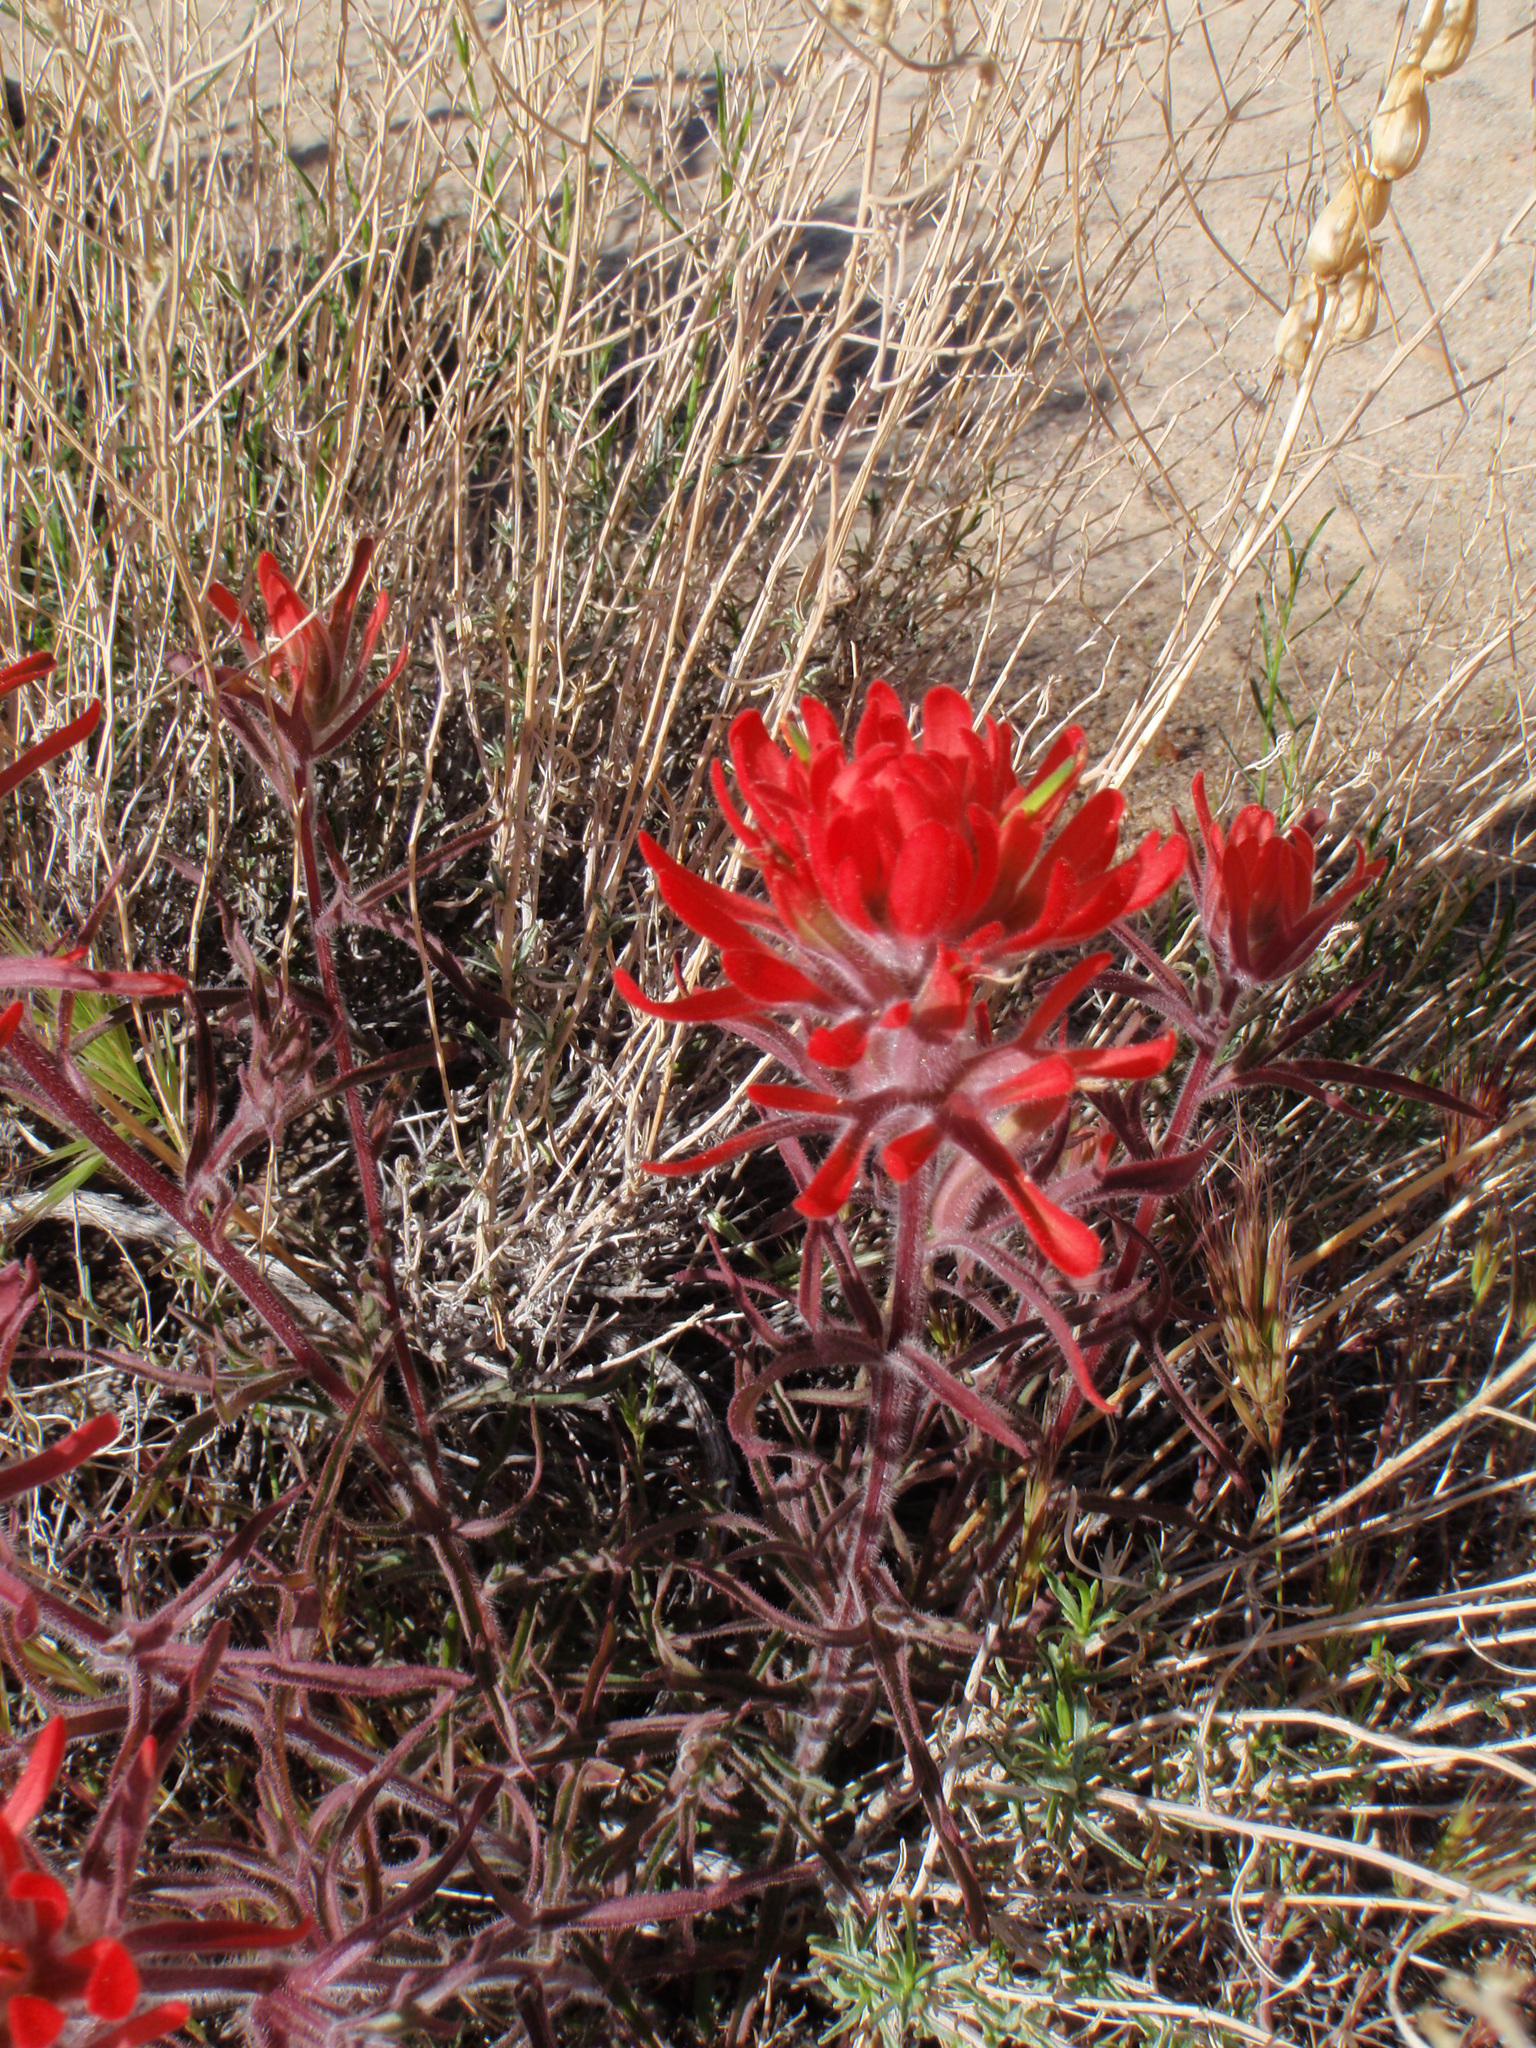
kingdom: Plantae
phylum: Tracheophyta
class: Magnoliopsida
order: Lamiales
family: Orobanchaceae
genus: Castilleja
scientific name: Castilleja chromosa
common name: Desert paintbrush
